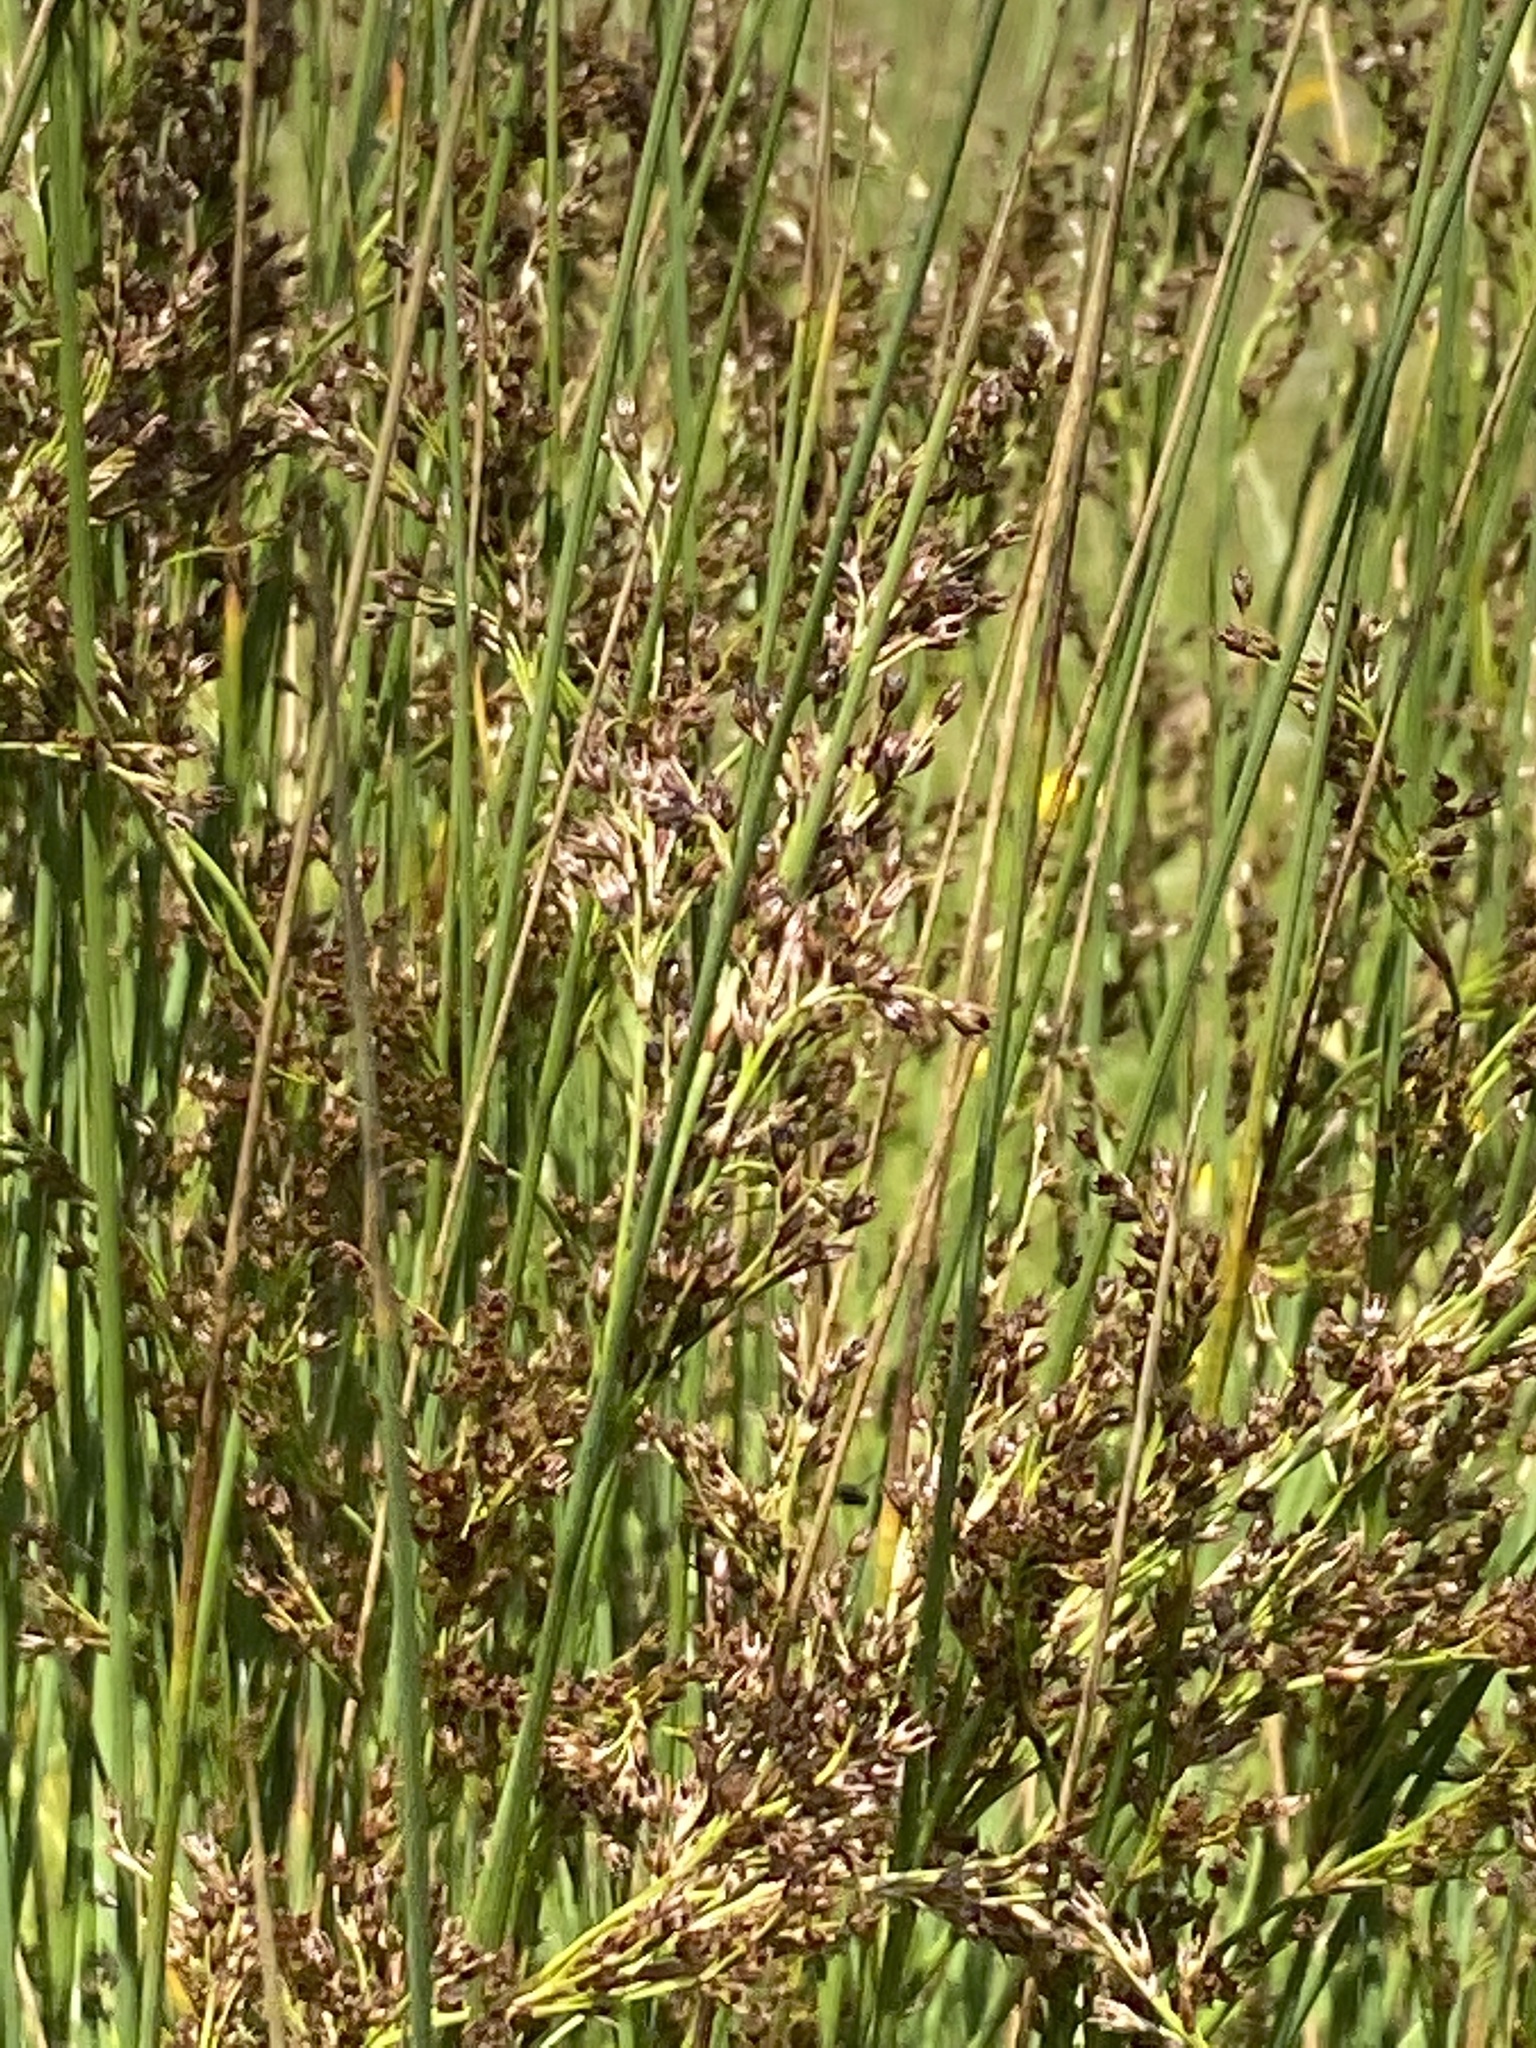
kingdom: Plantae
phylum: Tracheophyta
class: Liliopsida
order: Poales
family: Juncaceae
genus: Juncus
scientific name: Juncus inflexus
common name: Hard rush
